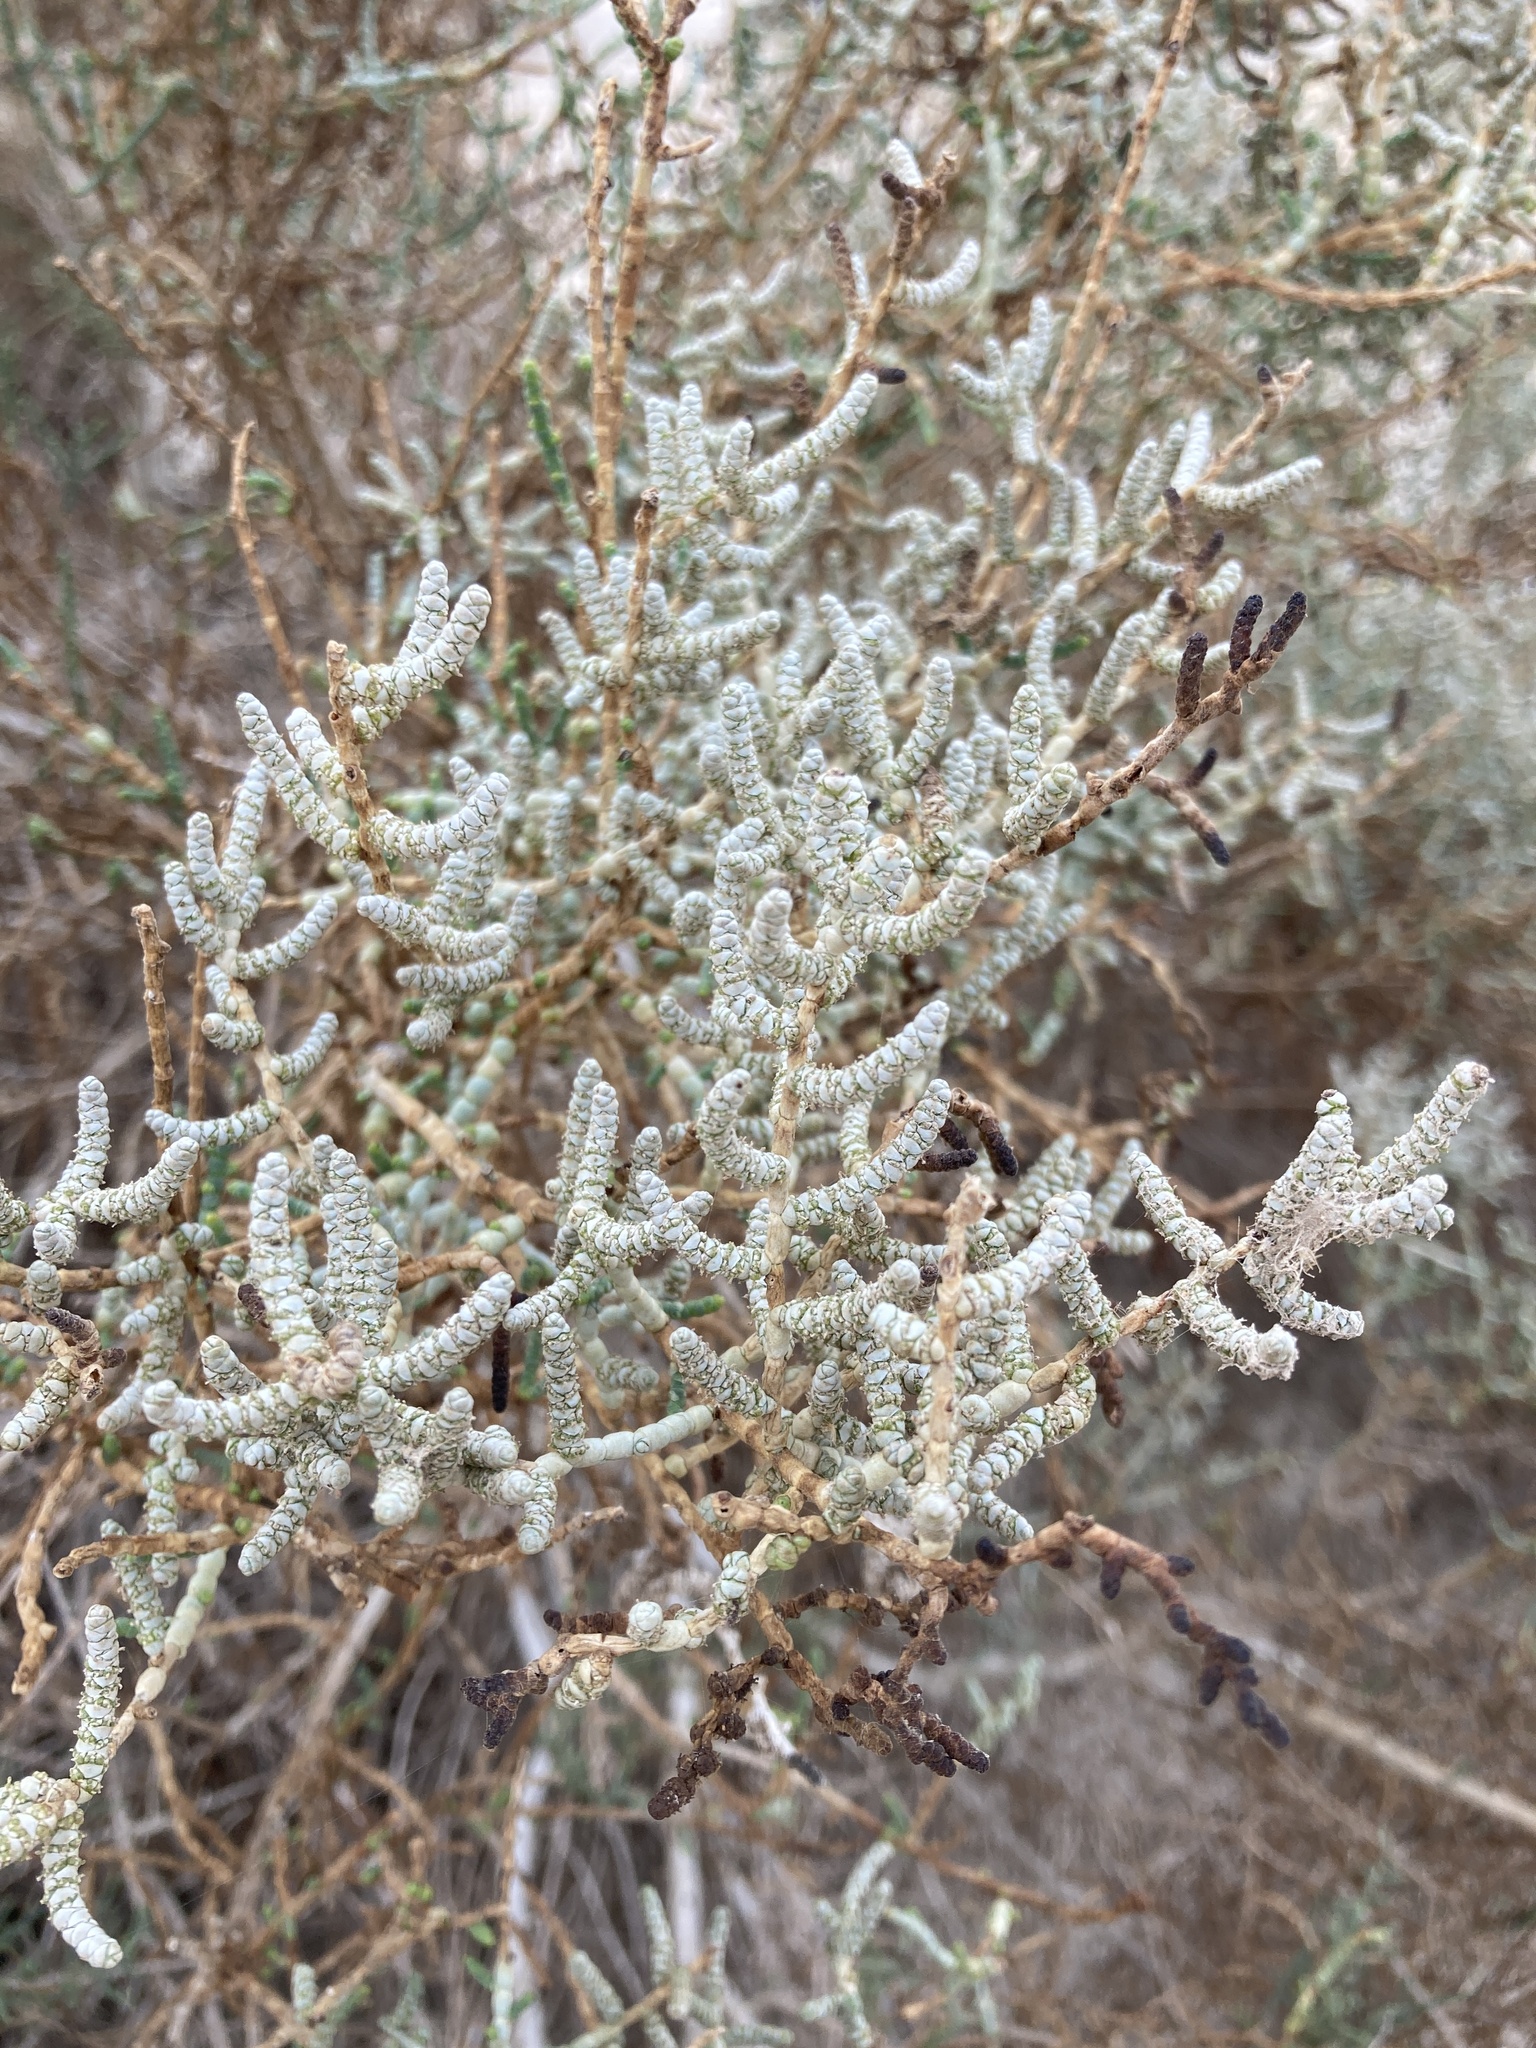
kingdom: Plantae
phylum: Tracheophyta
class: Magnoliopsida
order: Caryophyllales
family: Amaranthaceae
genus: Allenrolfea
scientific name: Allenrolfea occidentalis
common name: Iodine-bush
